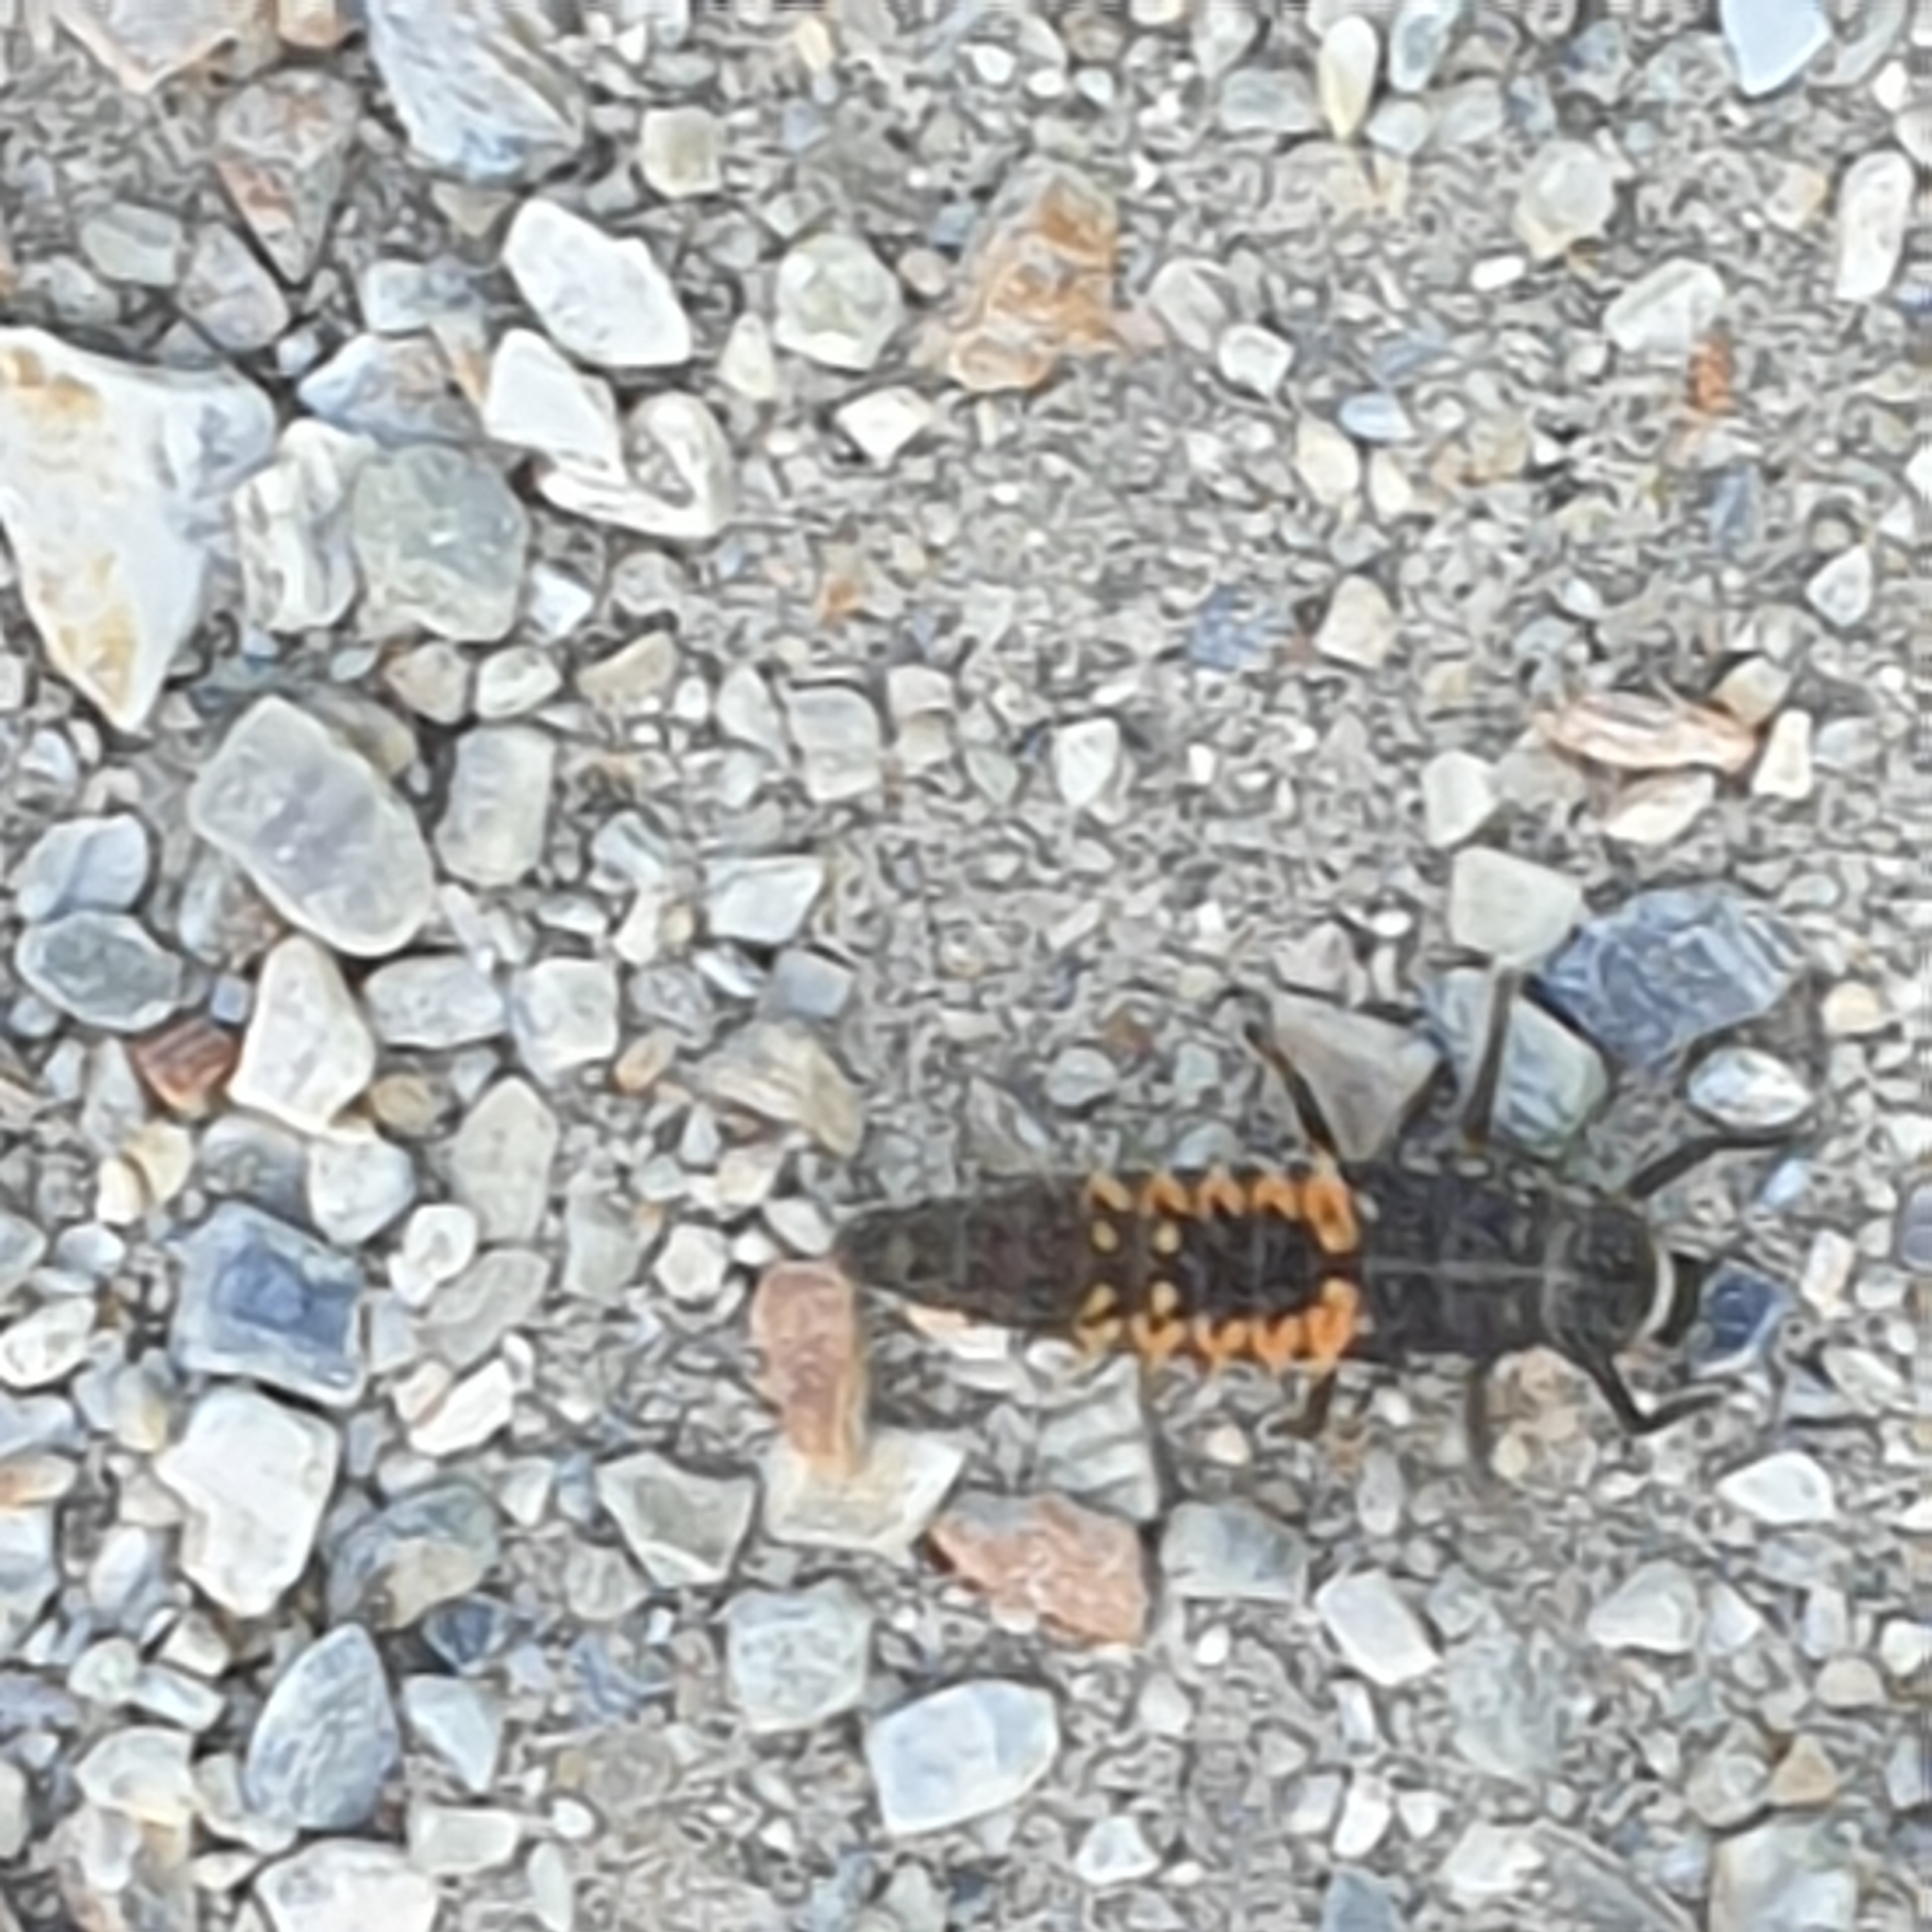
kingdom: Animalia
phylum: Arthropoda
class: Insecta
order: Coleoptera
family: Coccinellidae
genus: Harmonia
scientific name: Harmonia axyridis
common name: Harlequin ladybird
